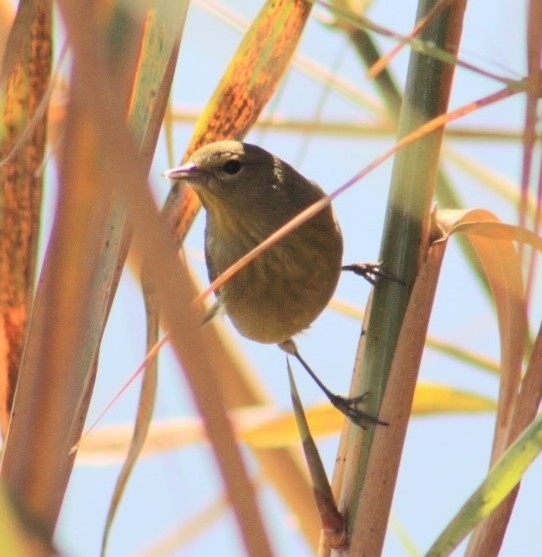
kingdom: Animalia
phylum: Chordata
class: Aves
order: Passeriformes
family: Parulidae
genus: Leiothlypis
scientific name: Leiothlypis celata
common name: Orange-crowned warbler
